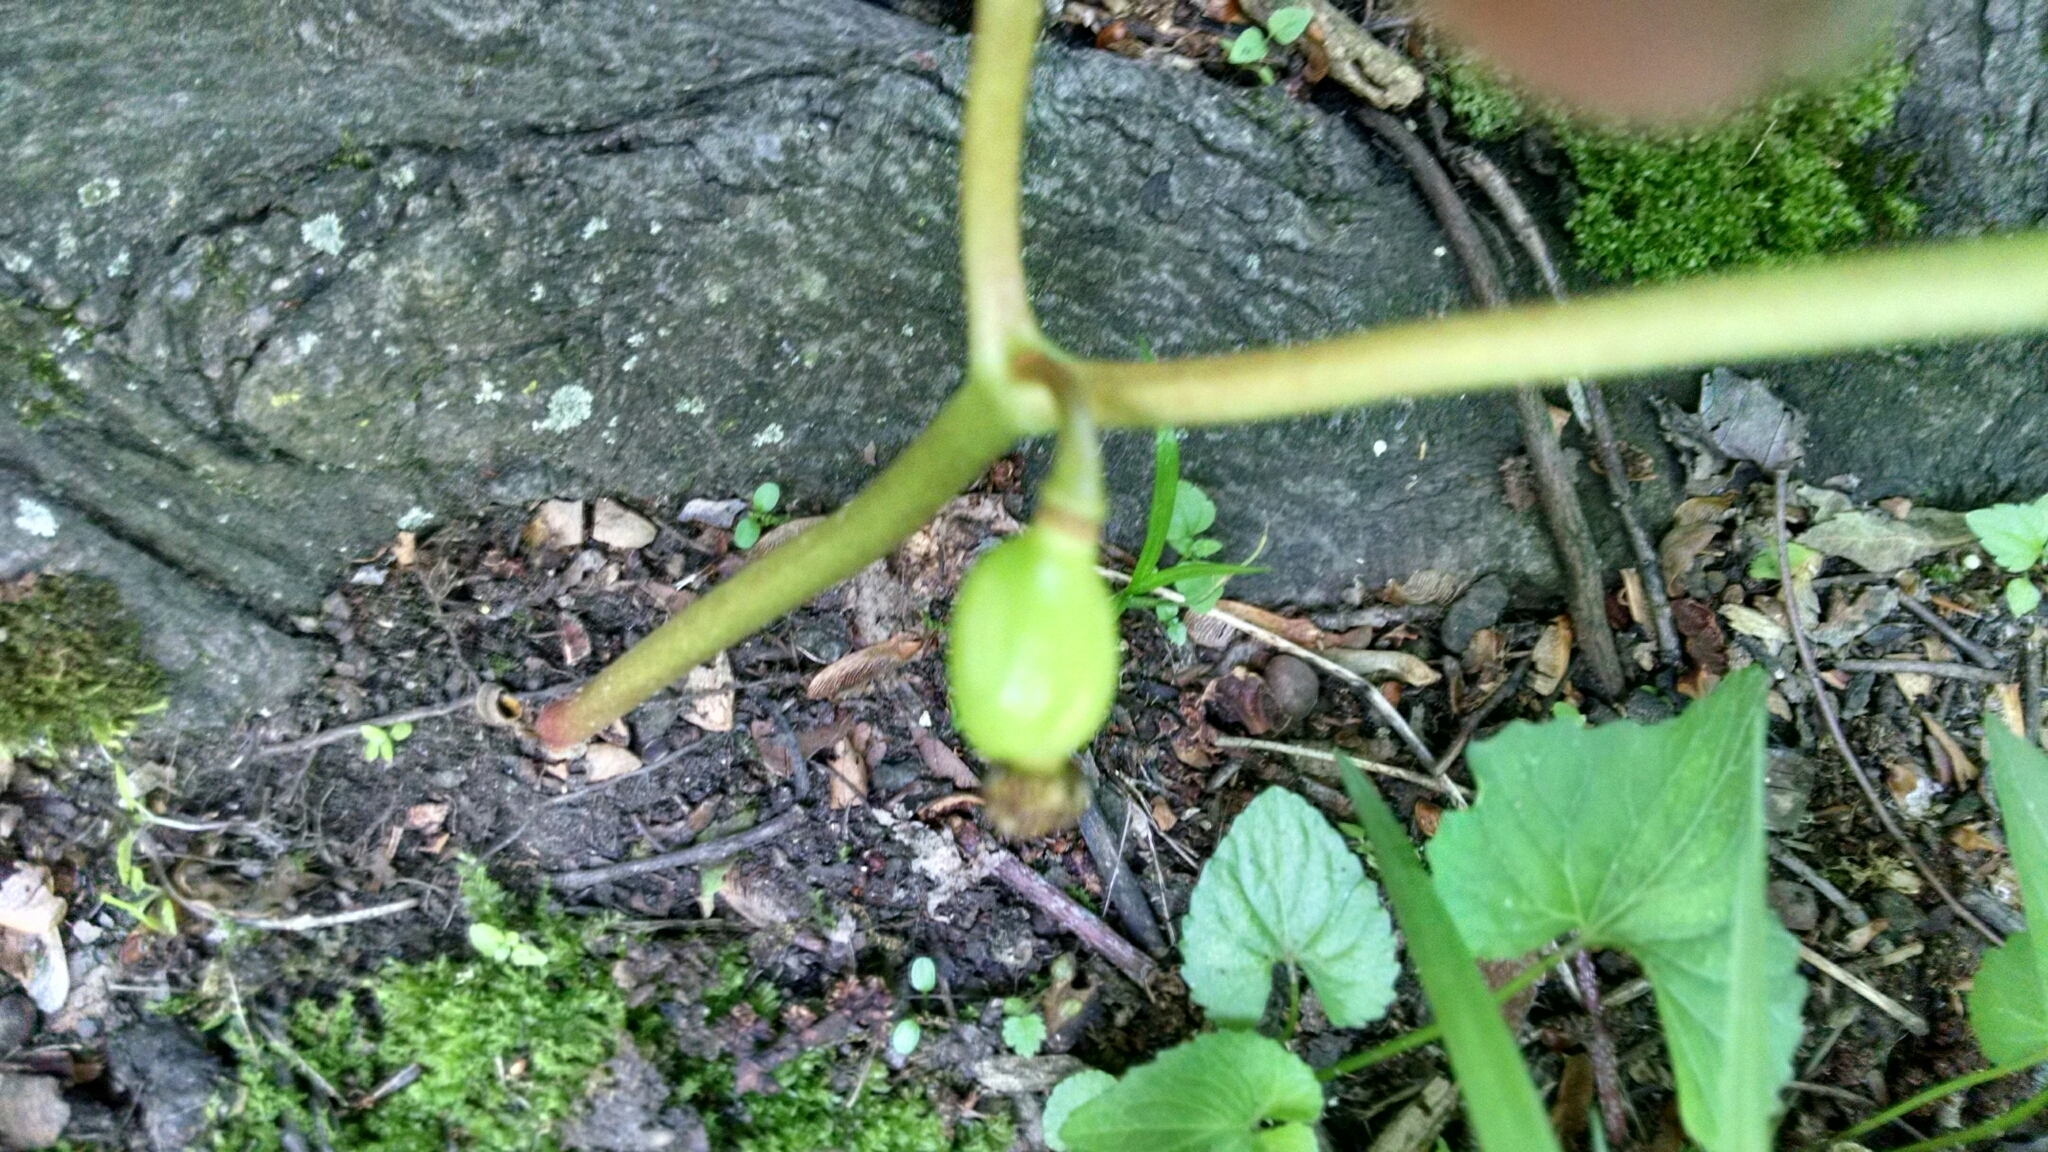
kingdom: Plantae
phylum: Tracheophyta
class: Magnoliopsida
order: Ranunculales
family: Berberidaceae
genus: Podophyllum
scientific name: Podophyllum peltatum
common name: Wild mandrake
